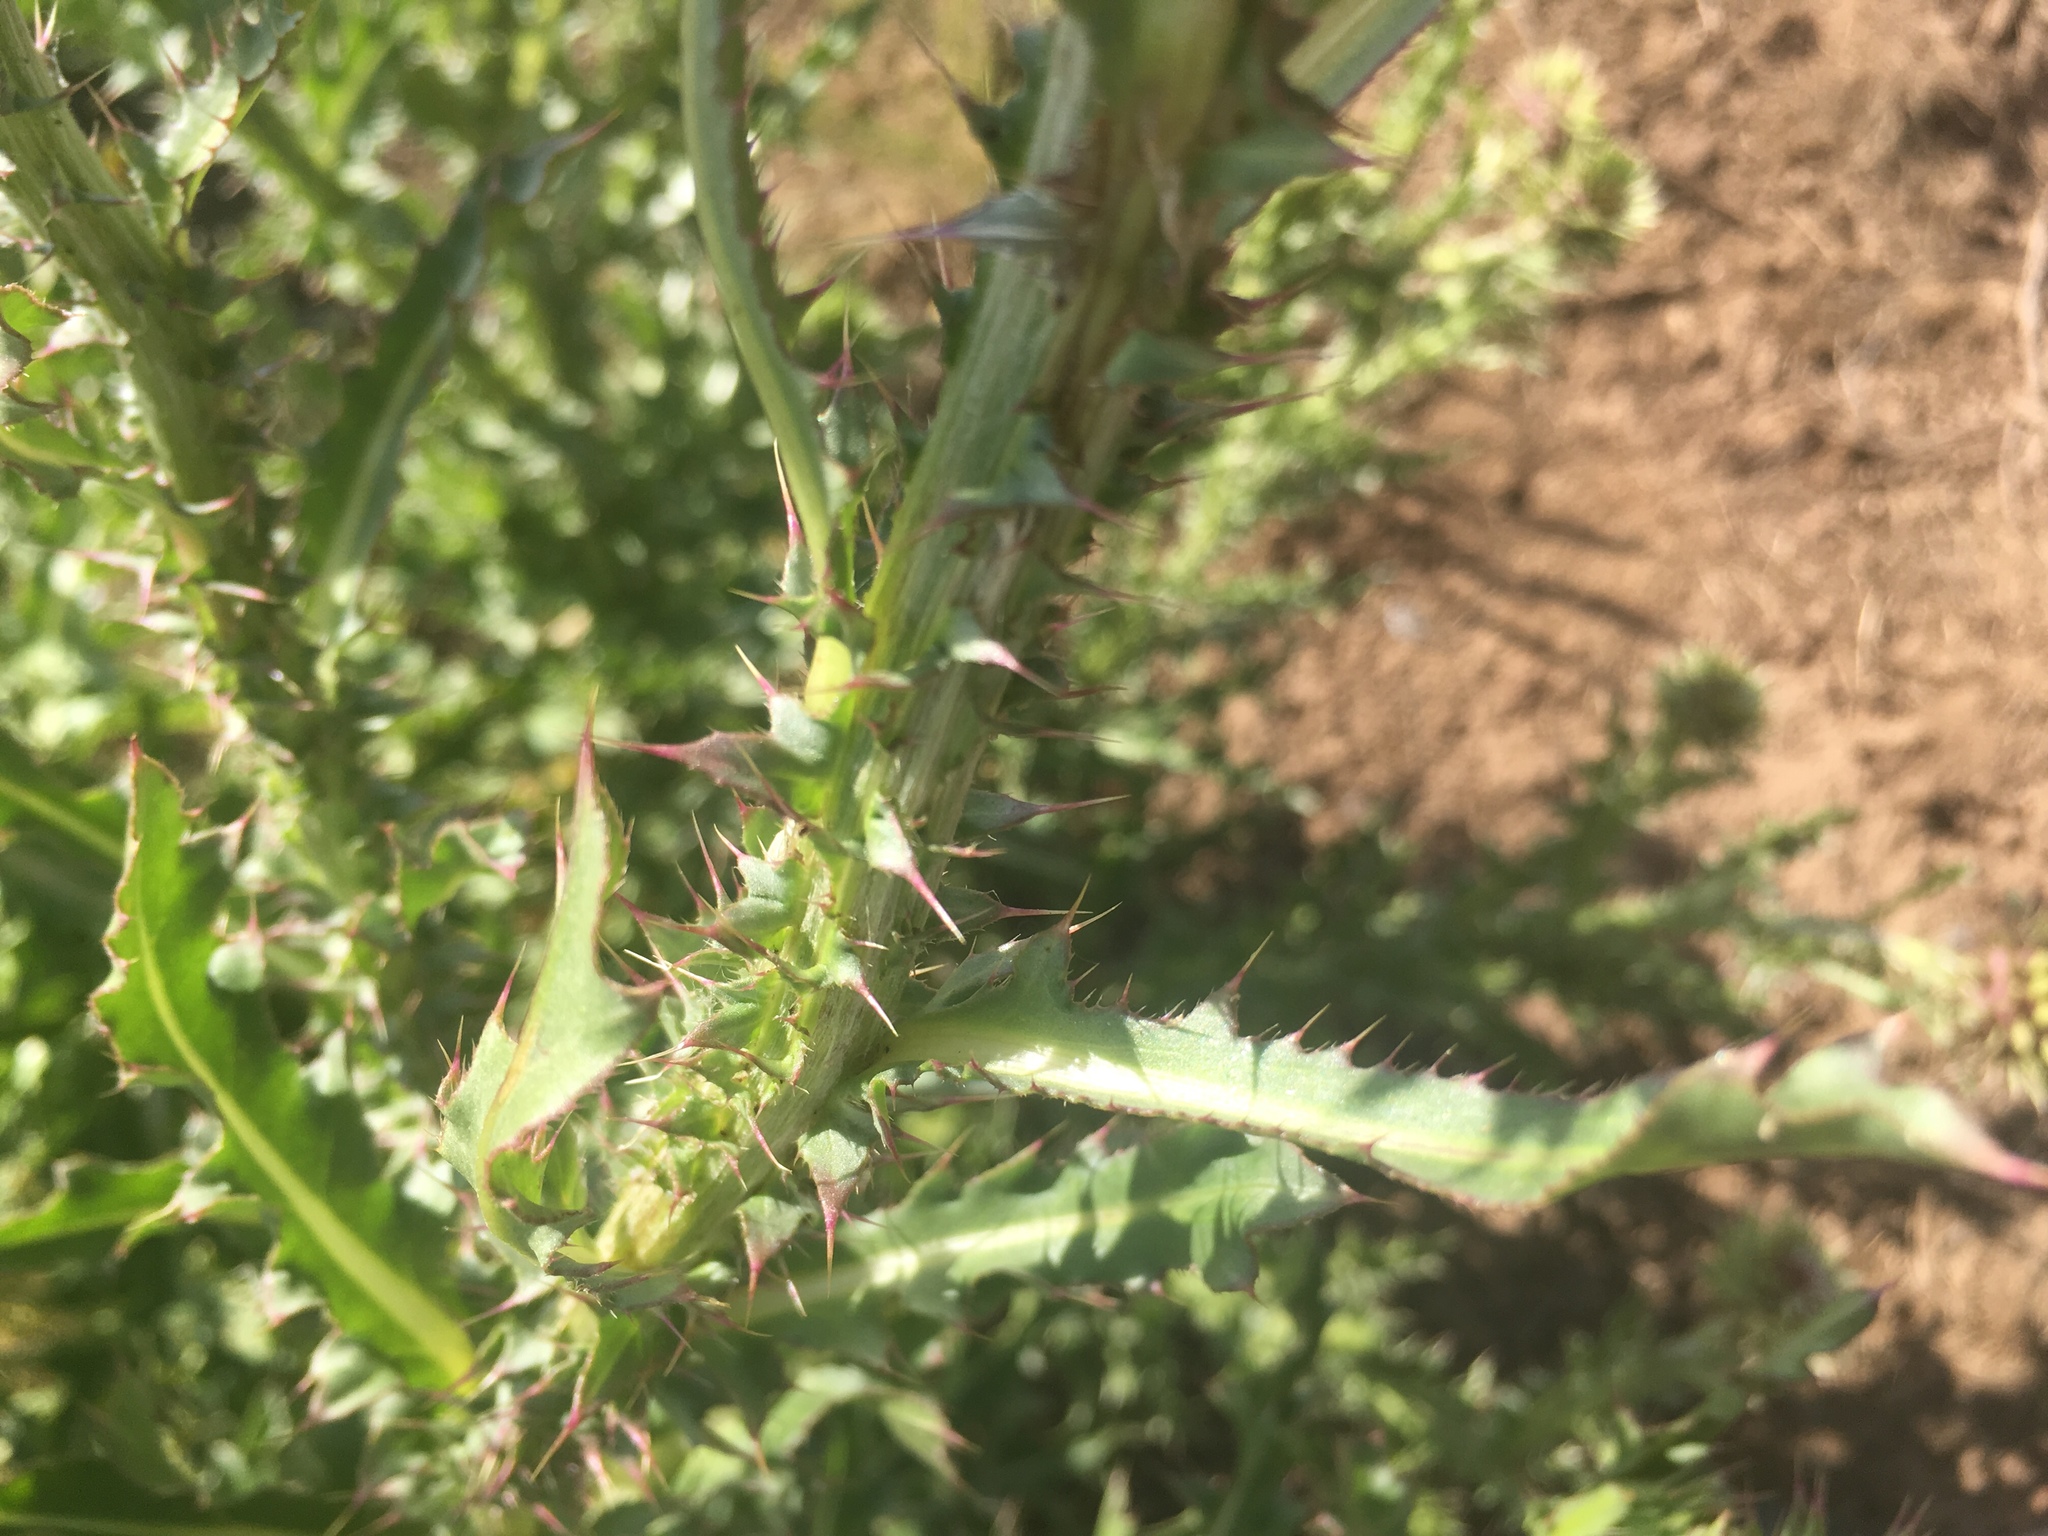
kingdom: Plantae
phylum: Tracheophyta
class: Magnoliopsida
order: Asterales
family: Asteraceae
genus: Carduus
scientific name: Carduus nutans
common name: Musk thistle
